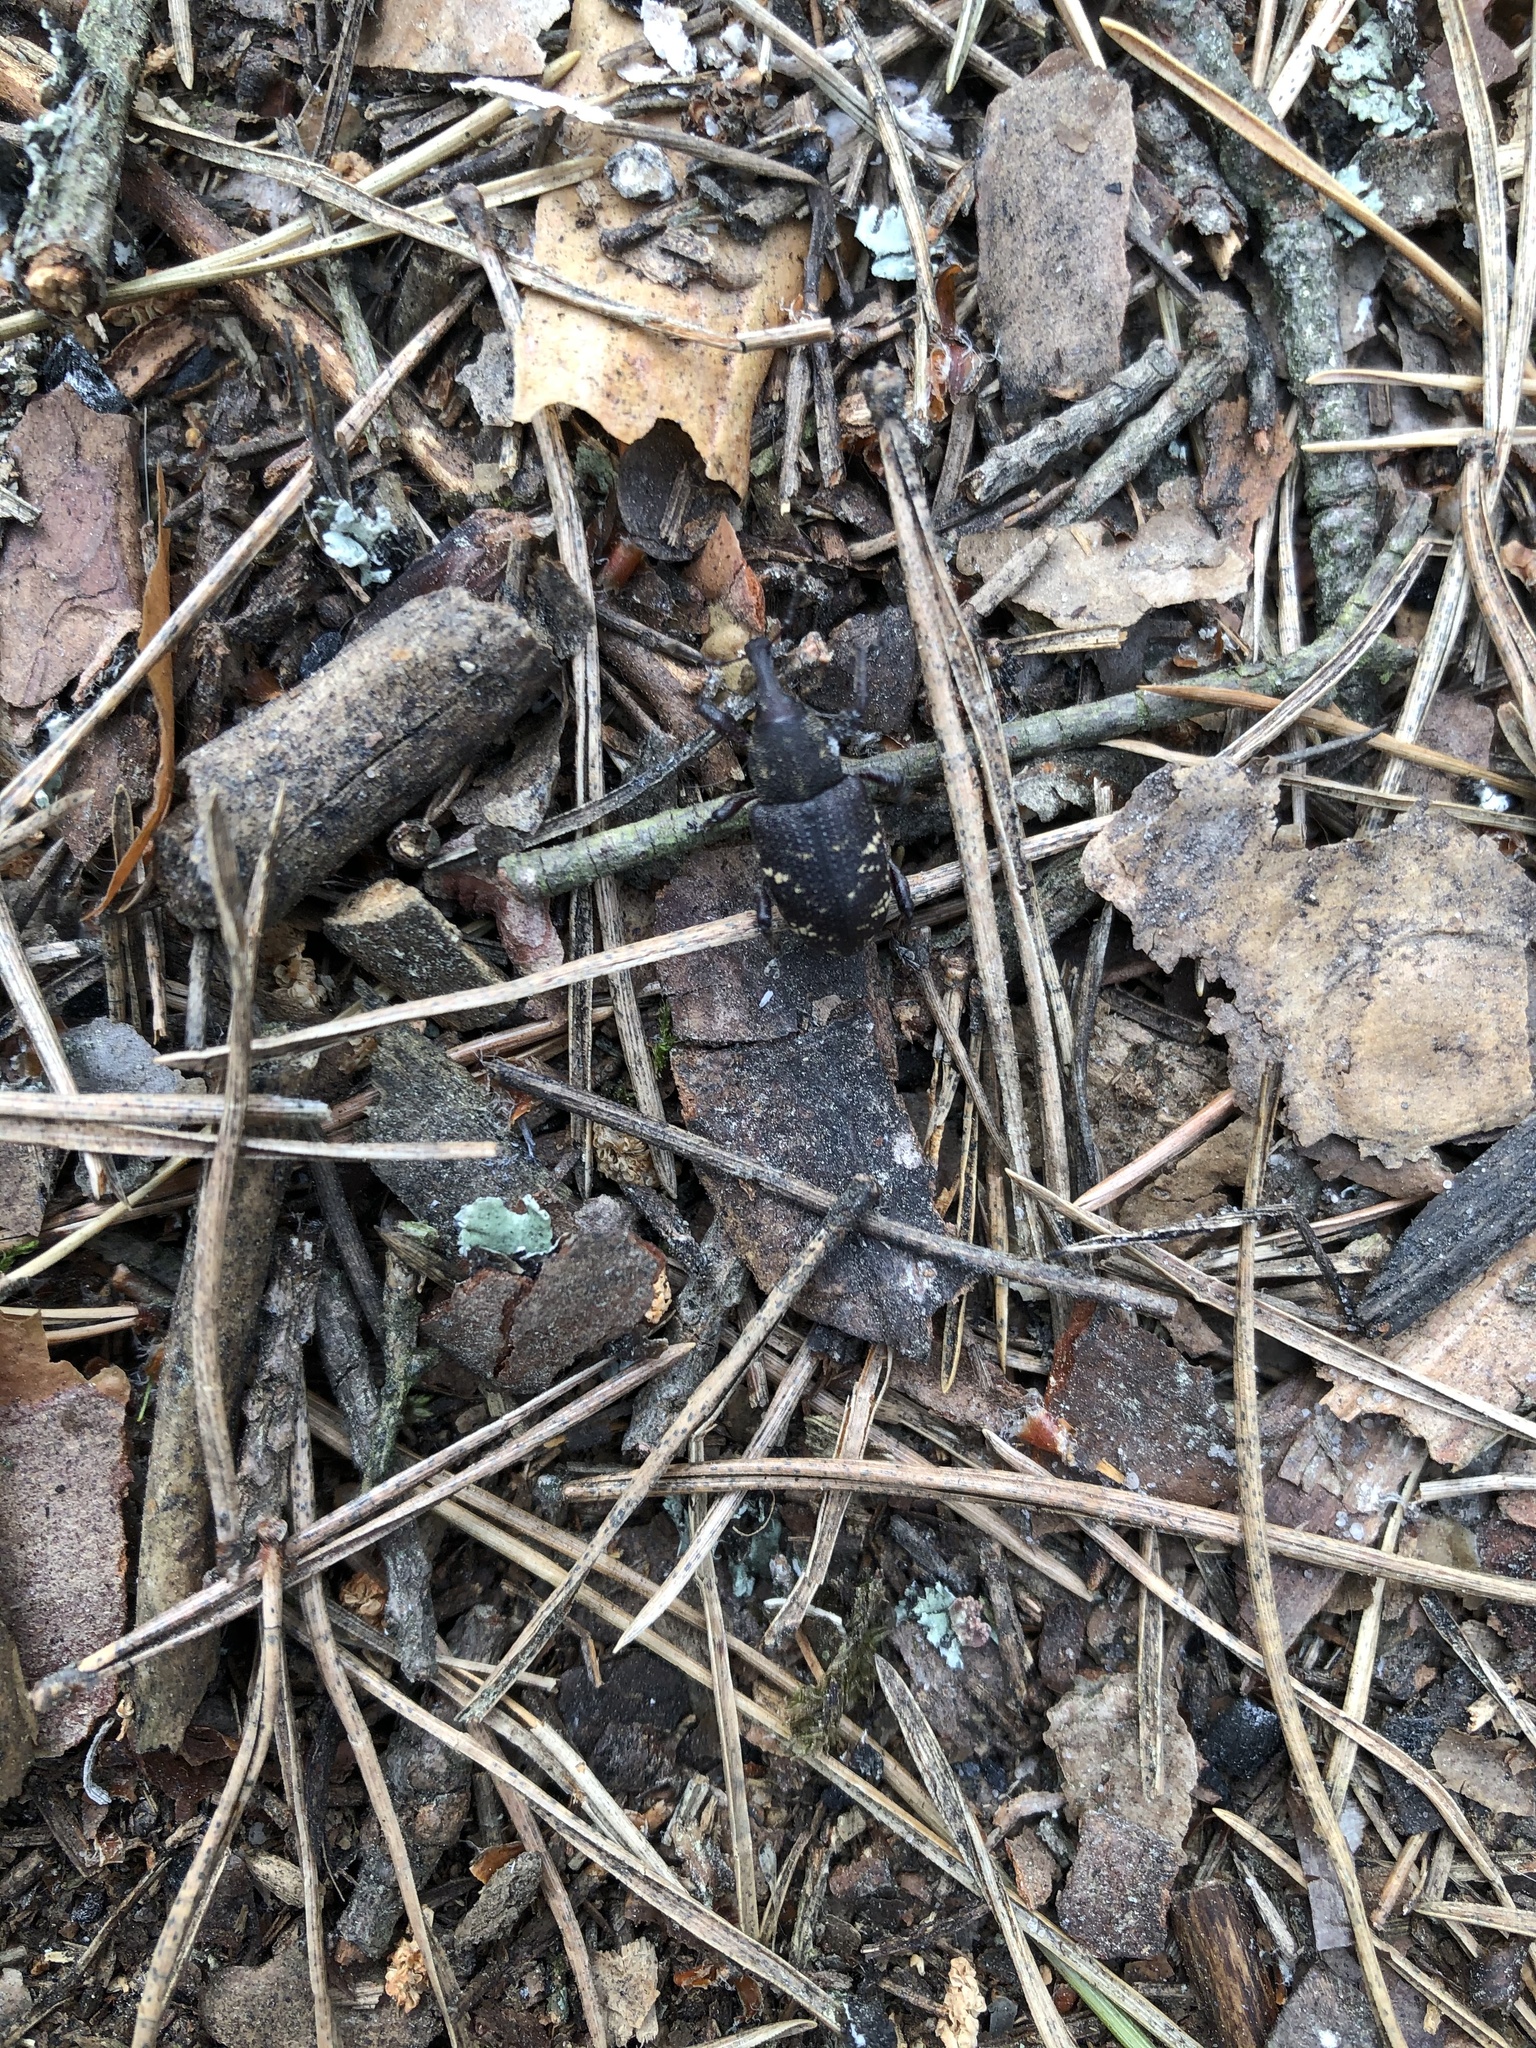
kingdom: Animalia
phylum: Arthropoda
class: Insecta
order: Coleoptera
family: Curculionidae
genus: Hylobius
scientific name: Hylobius abietis
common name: Large pine weevil
